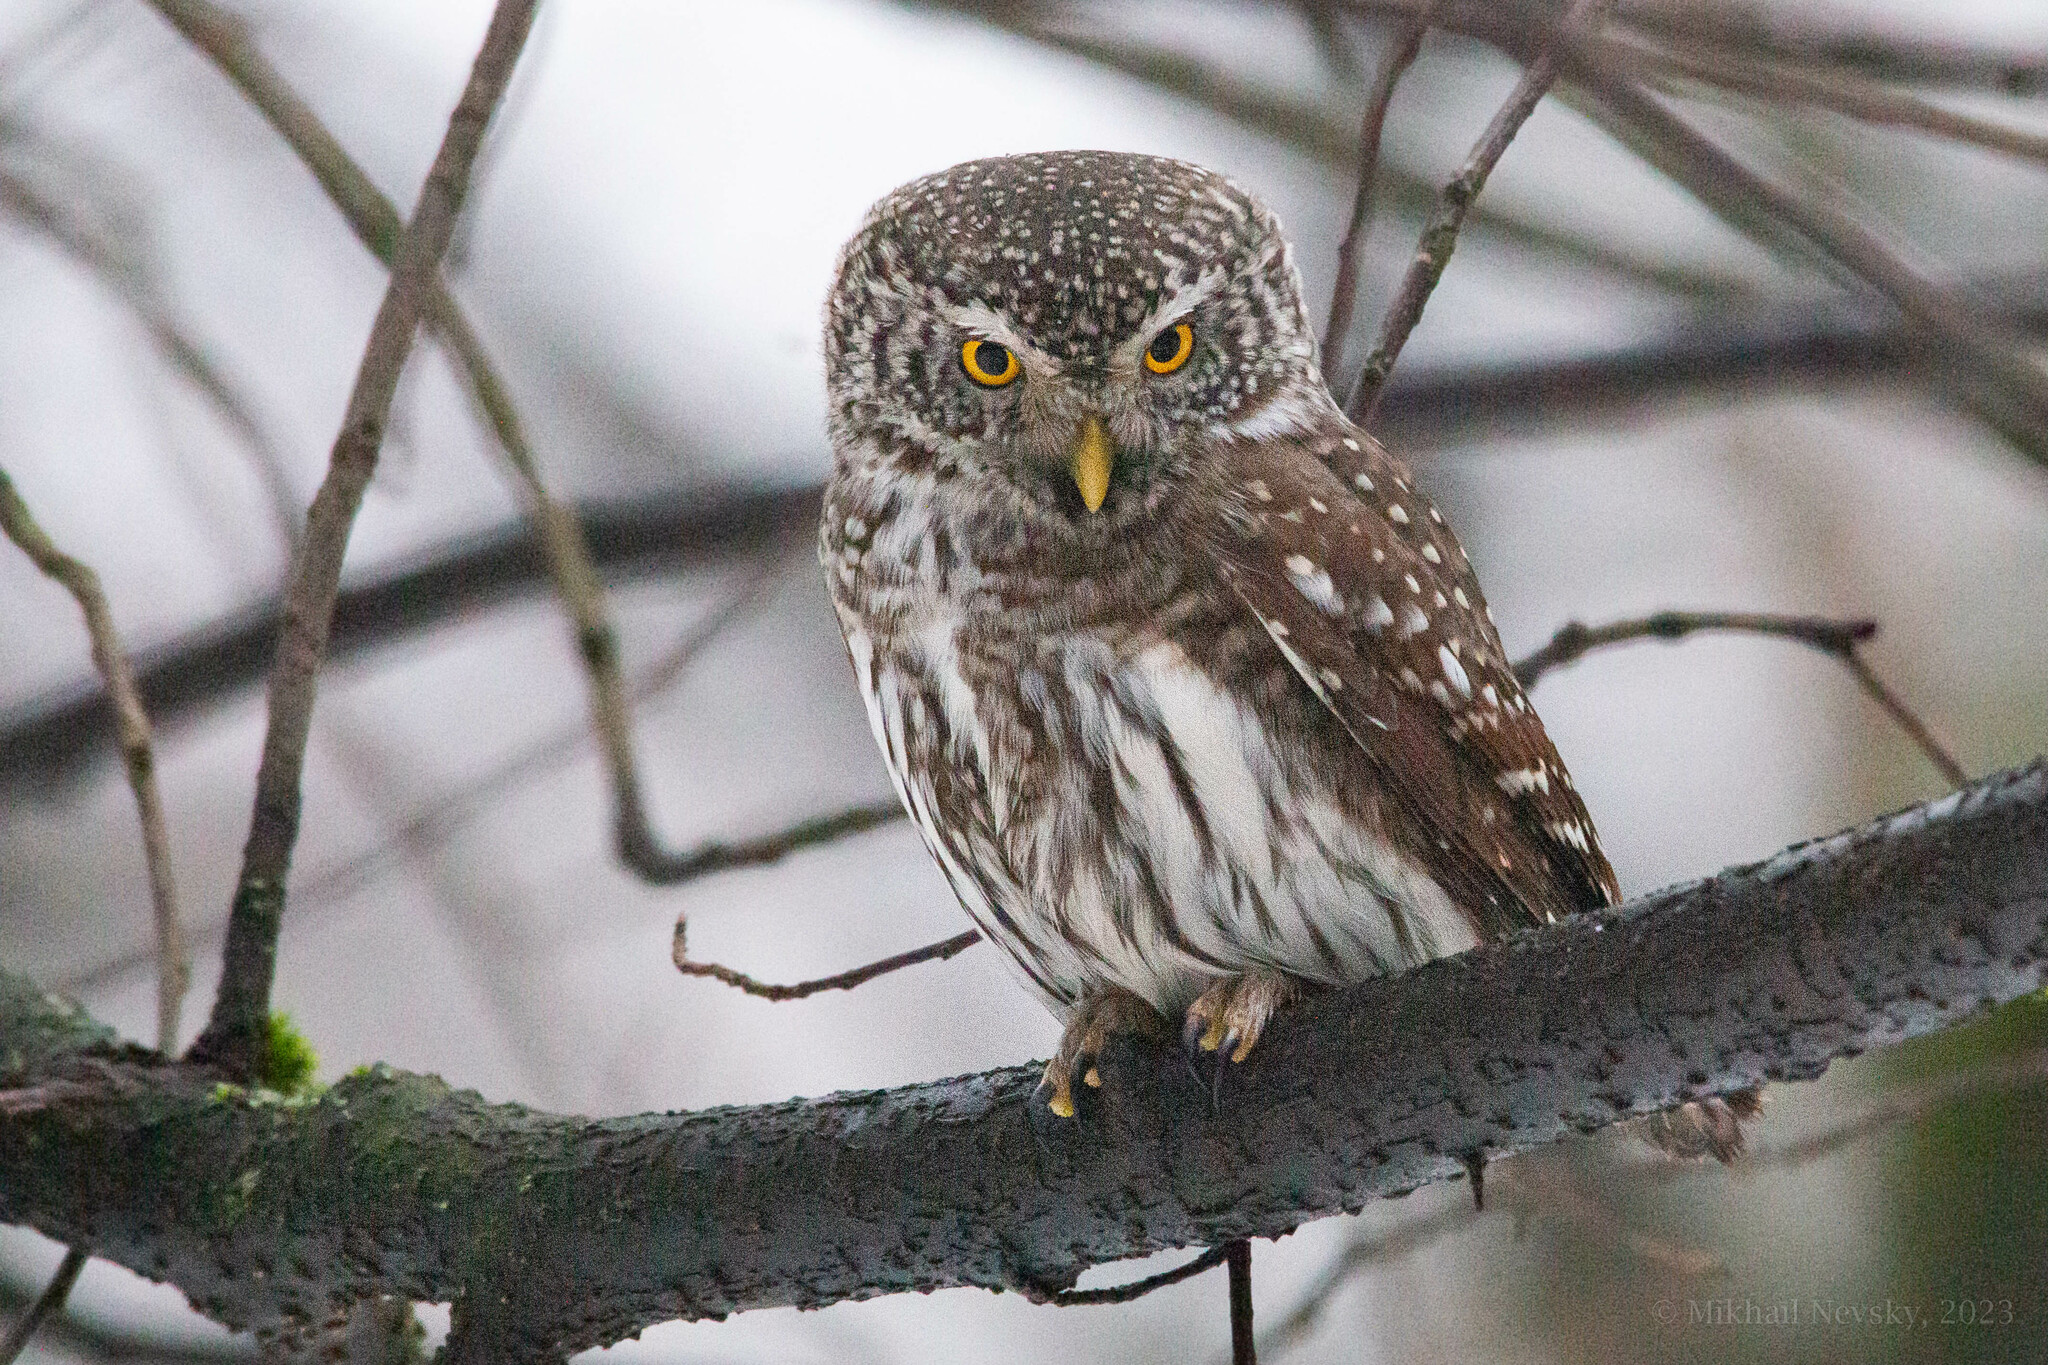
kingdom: Animalia
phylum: Chordata
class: Aves
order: Strigiformes
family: Strigidae
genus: Glaucidium
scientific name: Glaucidium passerinum
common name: Eurasian pygmy owl
